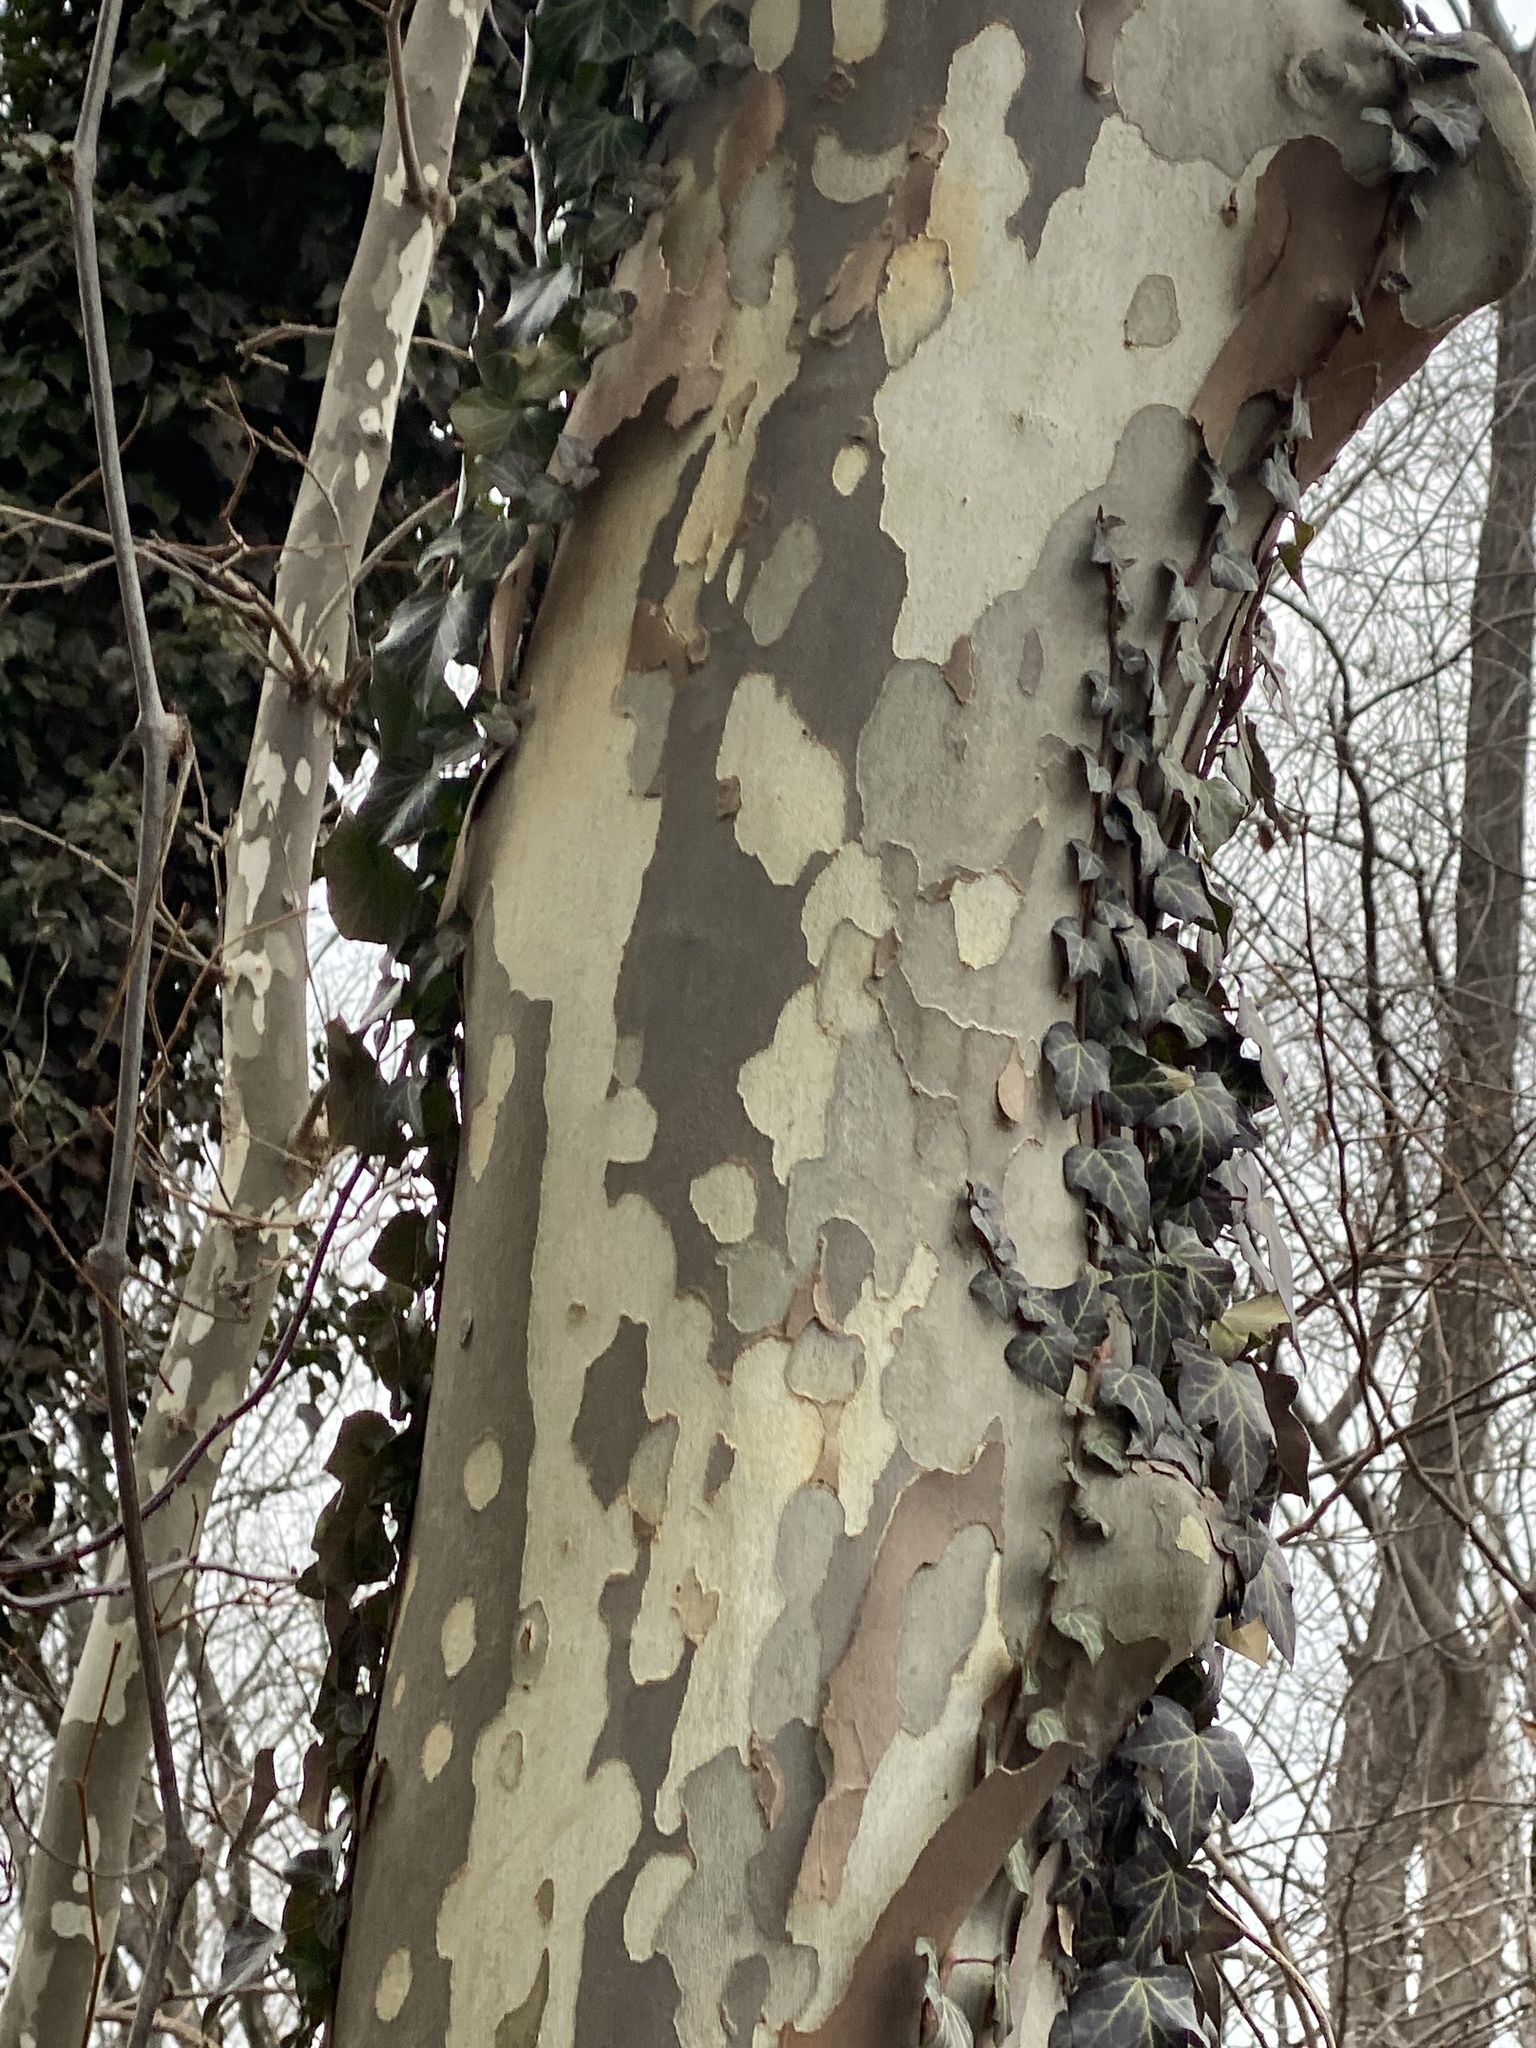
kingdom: Plantae
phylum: Tracheophyta
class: Magnoliopsida
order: Proteales
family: Platanaceae
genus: Platanus
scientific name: Platanus occidentalis
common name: American sycamore
